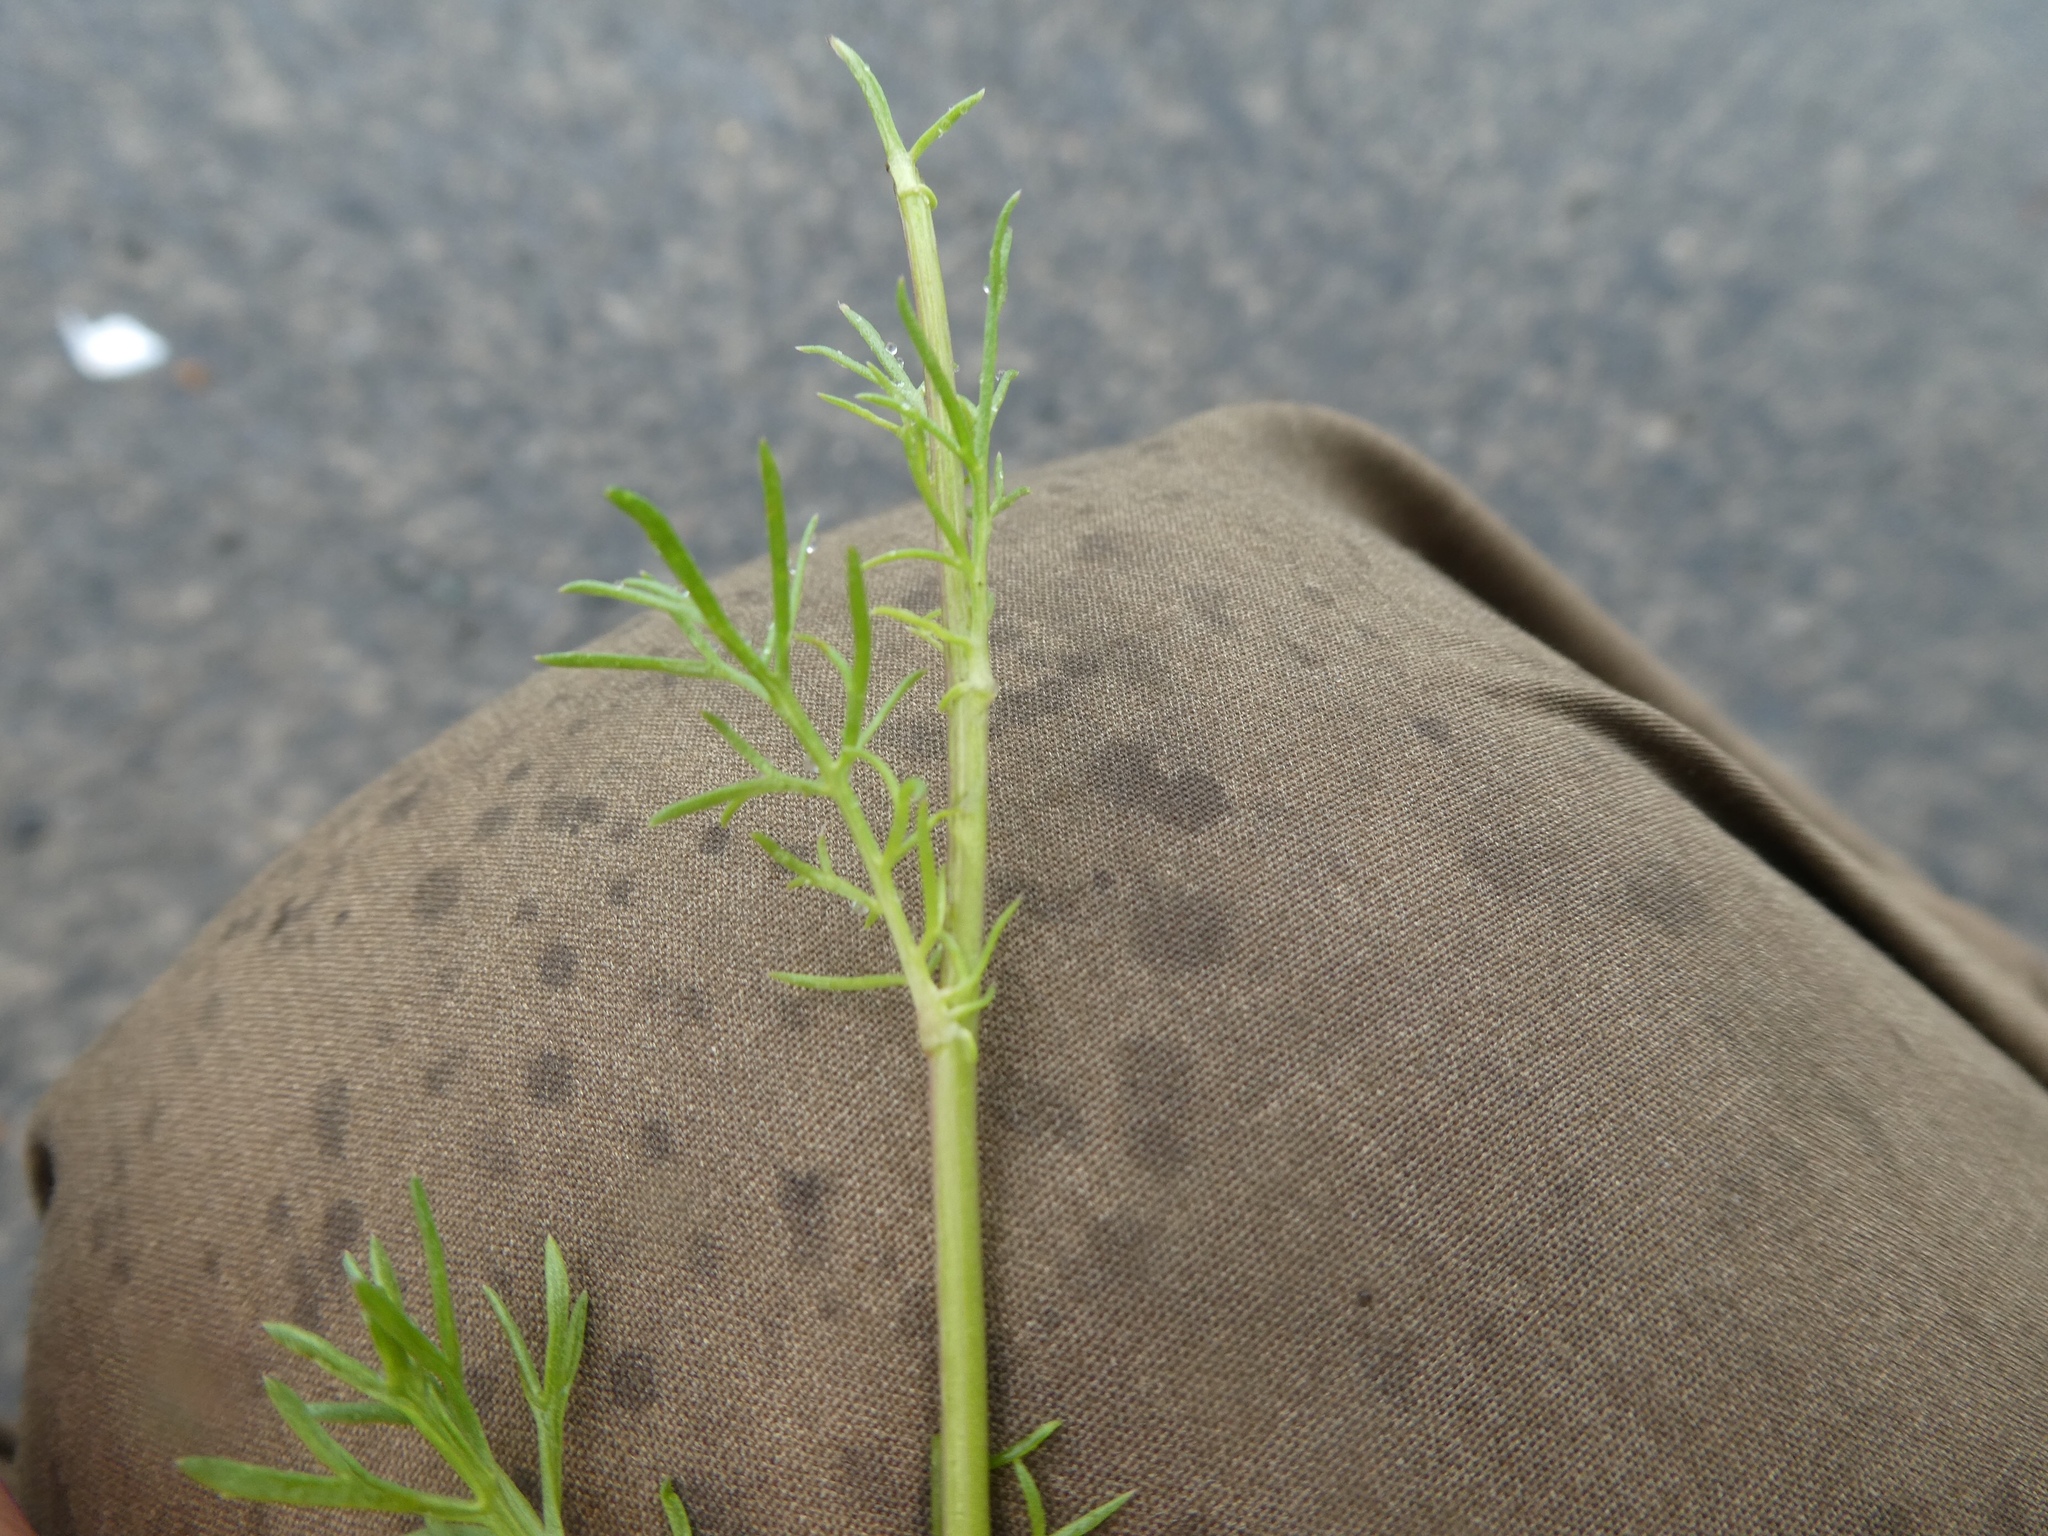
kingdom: Plantae
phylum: Tracheophyta
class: Magnoliopsida
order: Asterales
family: Asteraceae
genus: Tripleurospermum
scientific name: Tripleurospermum inodorum
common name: Scentless mayweed
